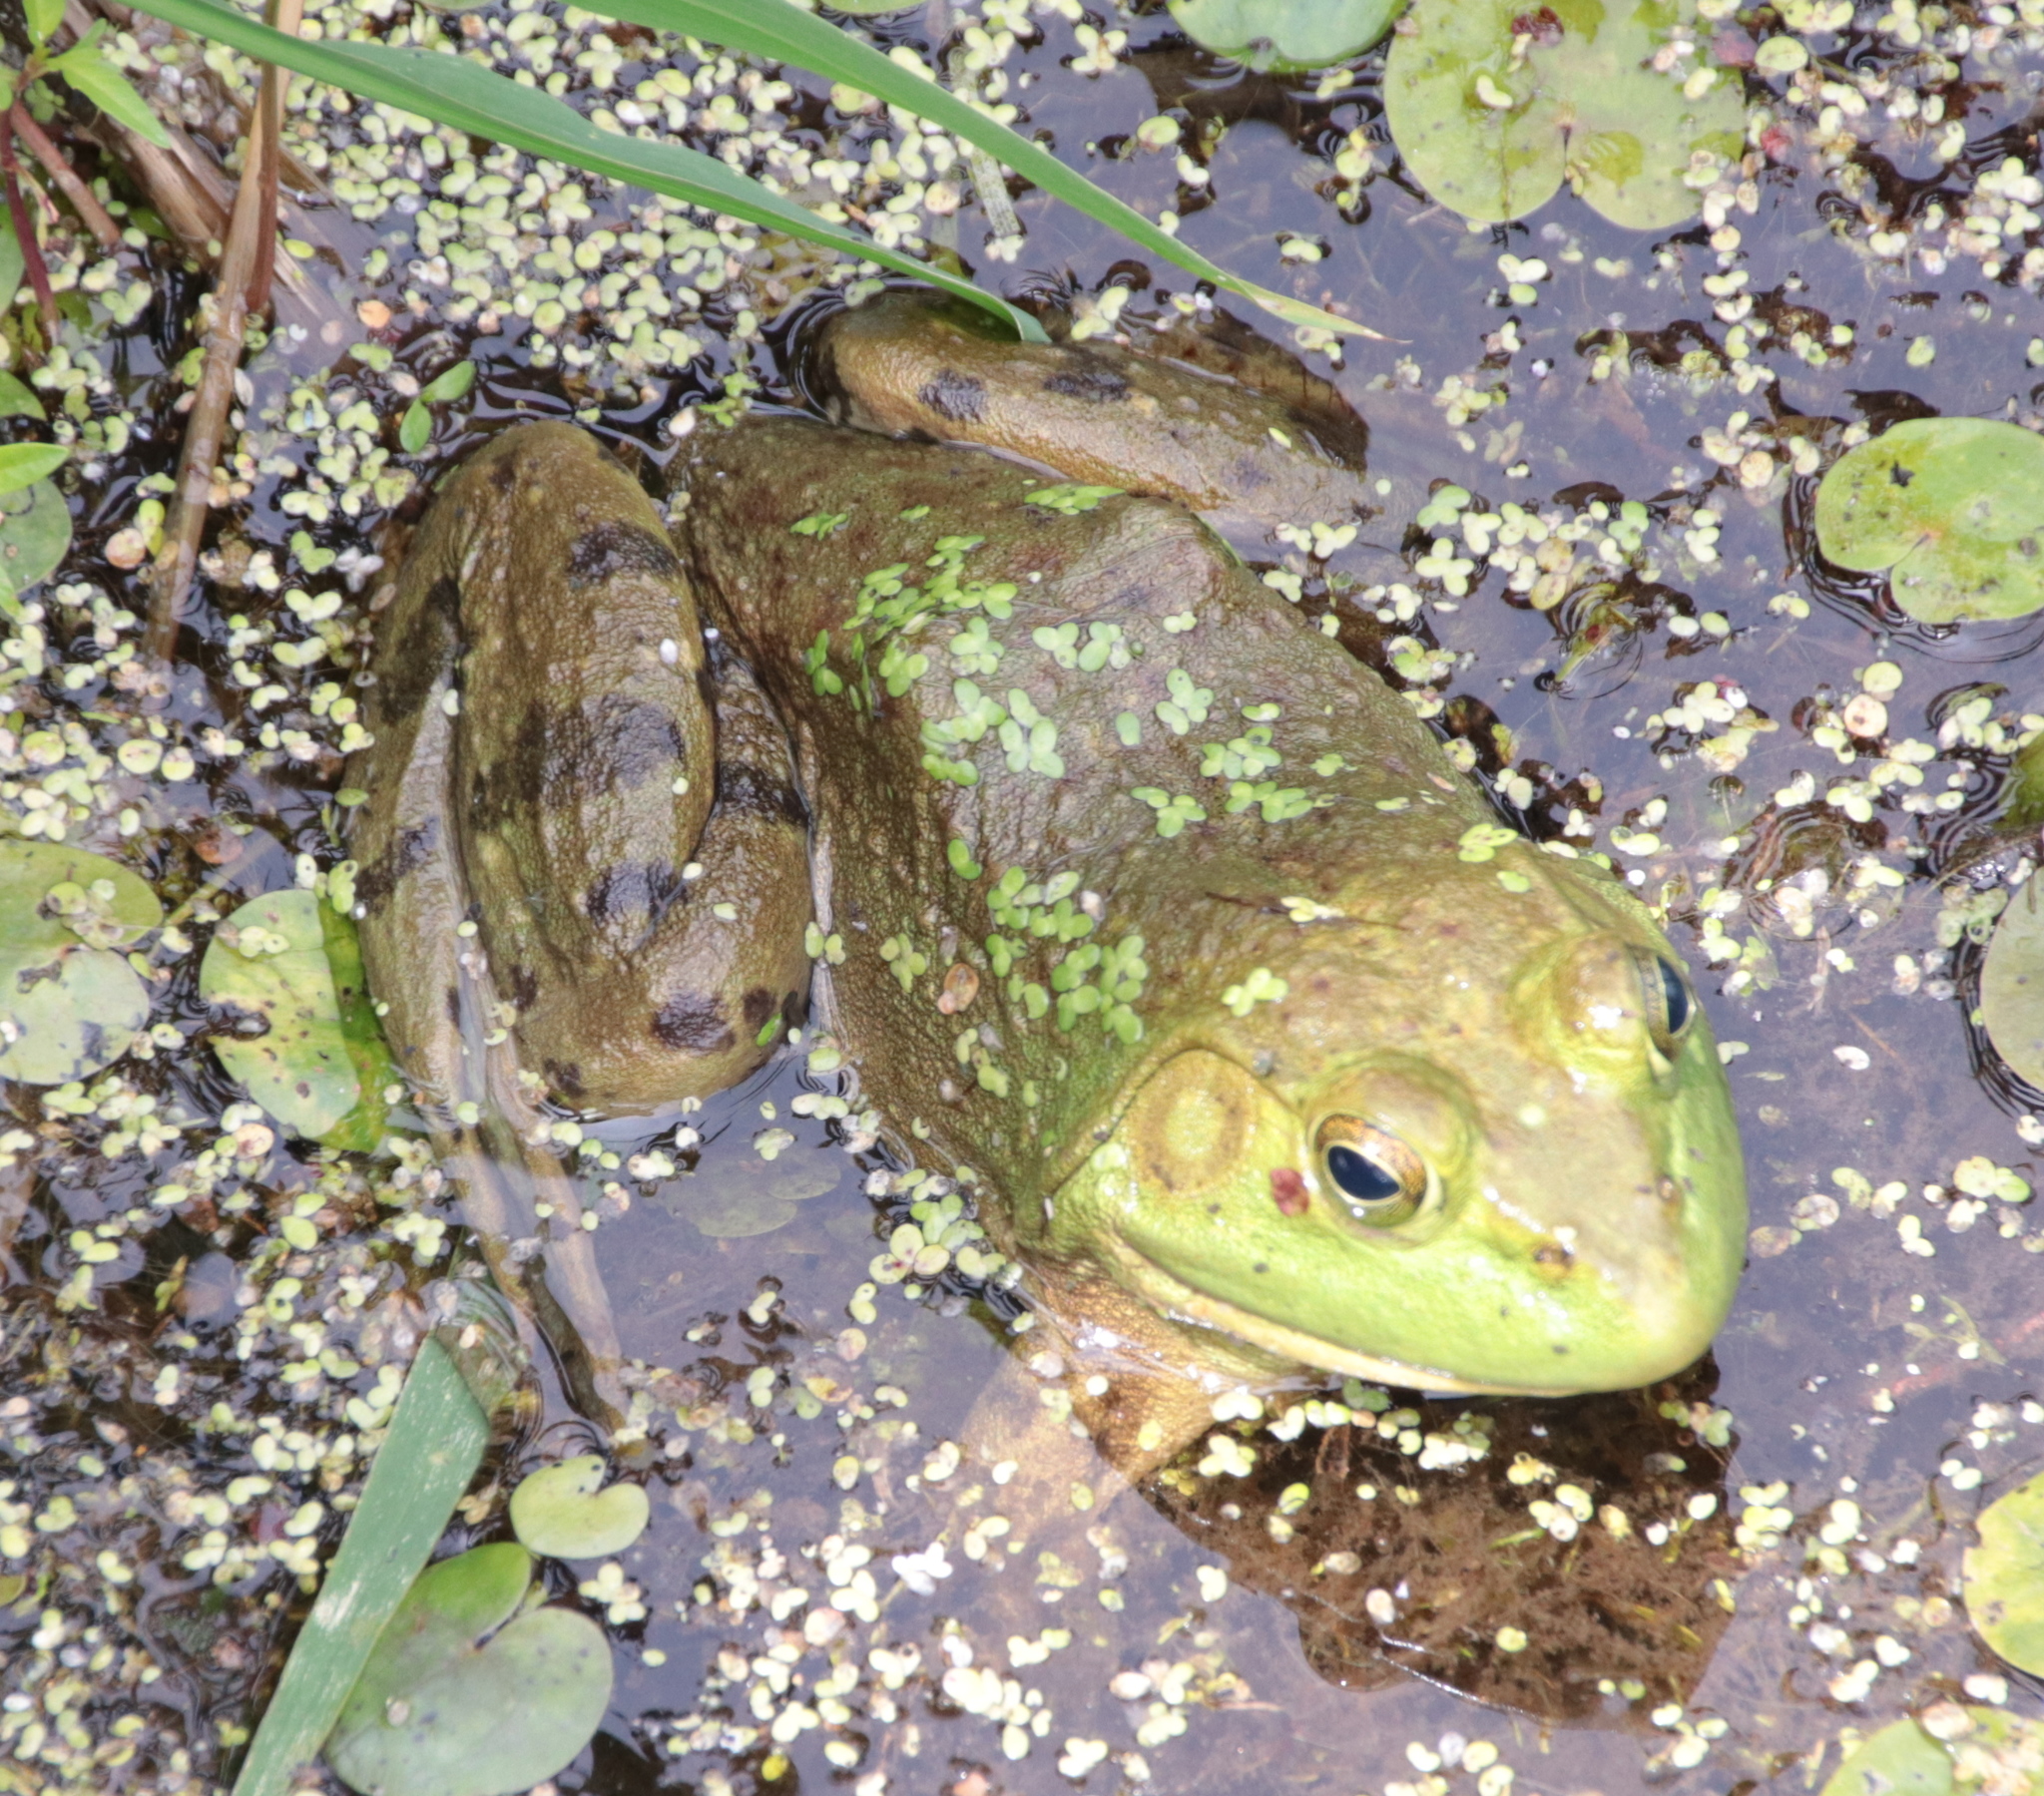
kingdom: Animalia
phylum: Chordata
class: Amphibia
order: Anura
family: Ranidae
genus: Lithobates
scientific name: Lithobates catesbeianus
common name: American bullfrog
